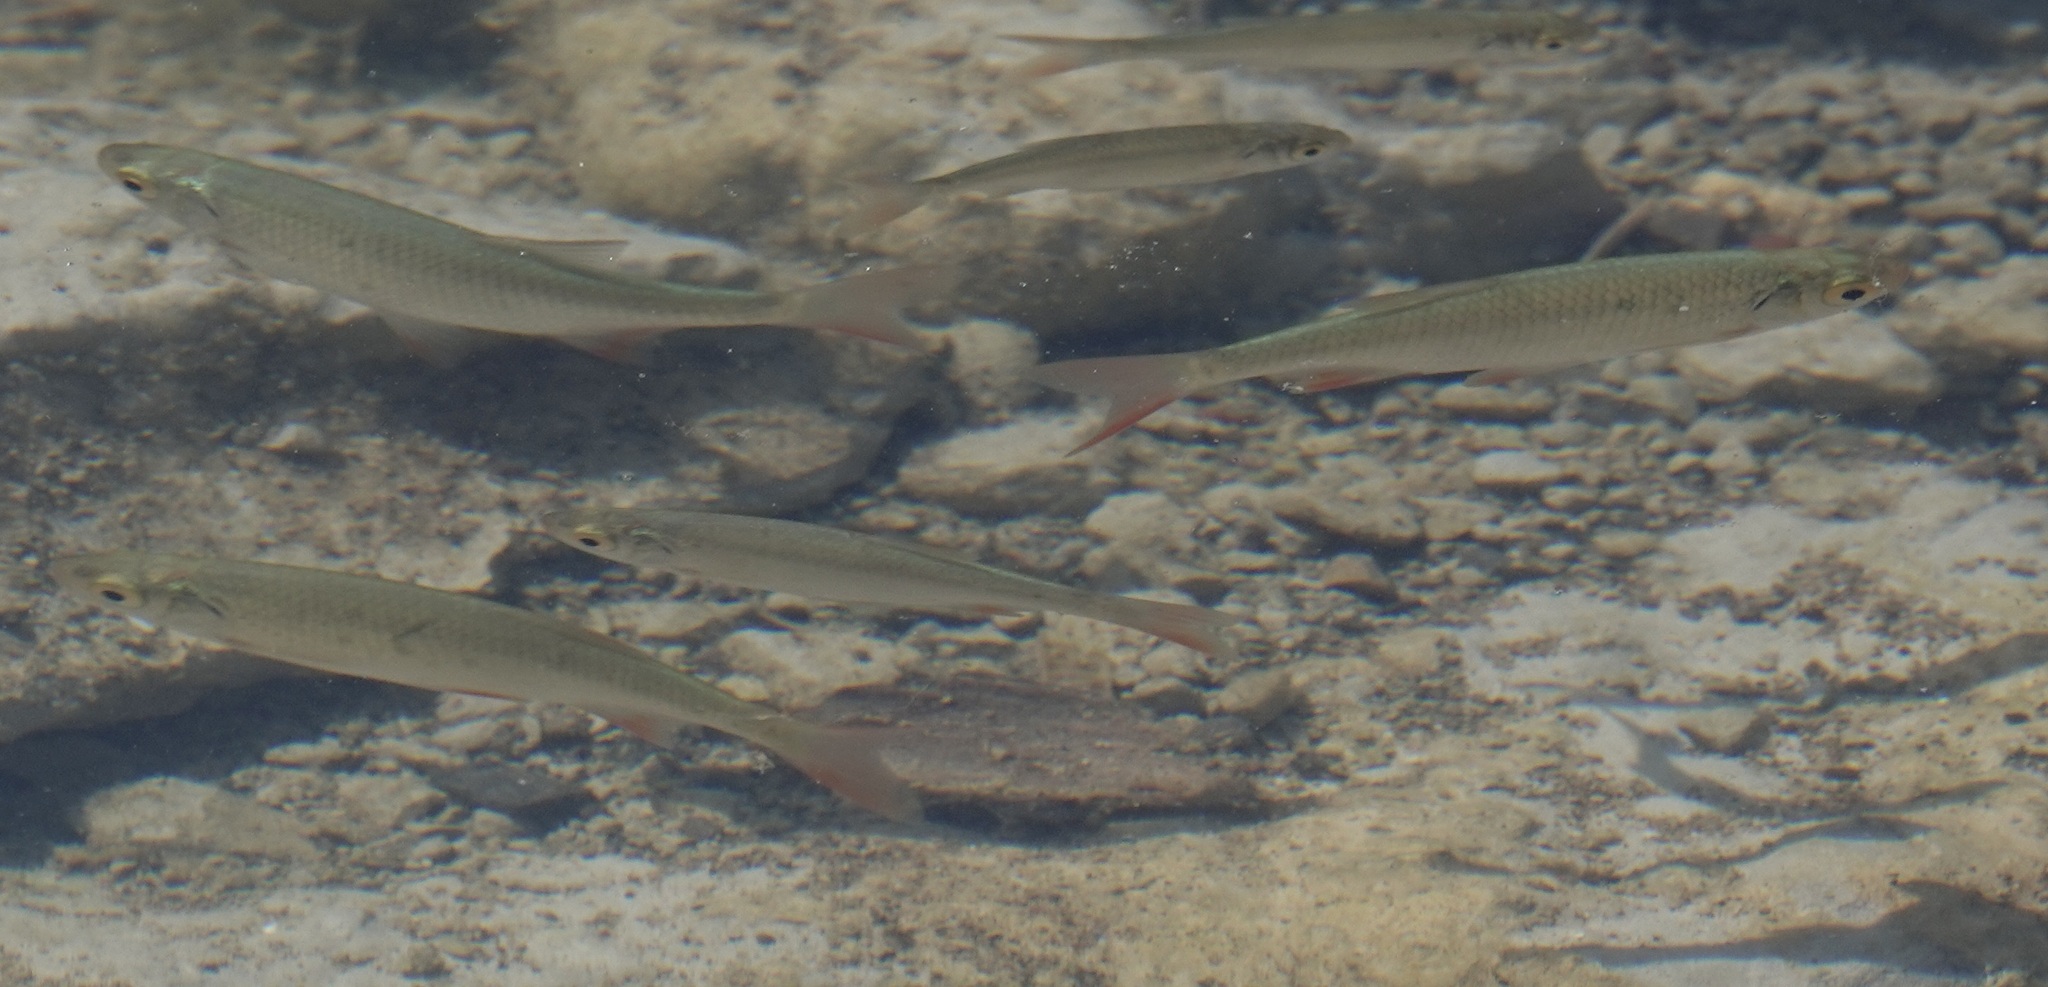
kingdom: Animalia
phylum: Chordata
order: Cypriniformes
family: Cyprinidae
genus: Scardinius
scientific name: Scardinius erythrophthalmus
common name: Rudd
